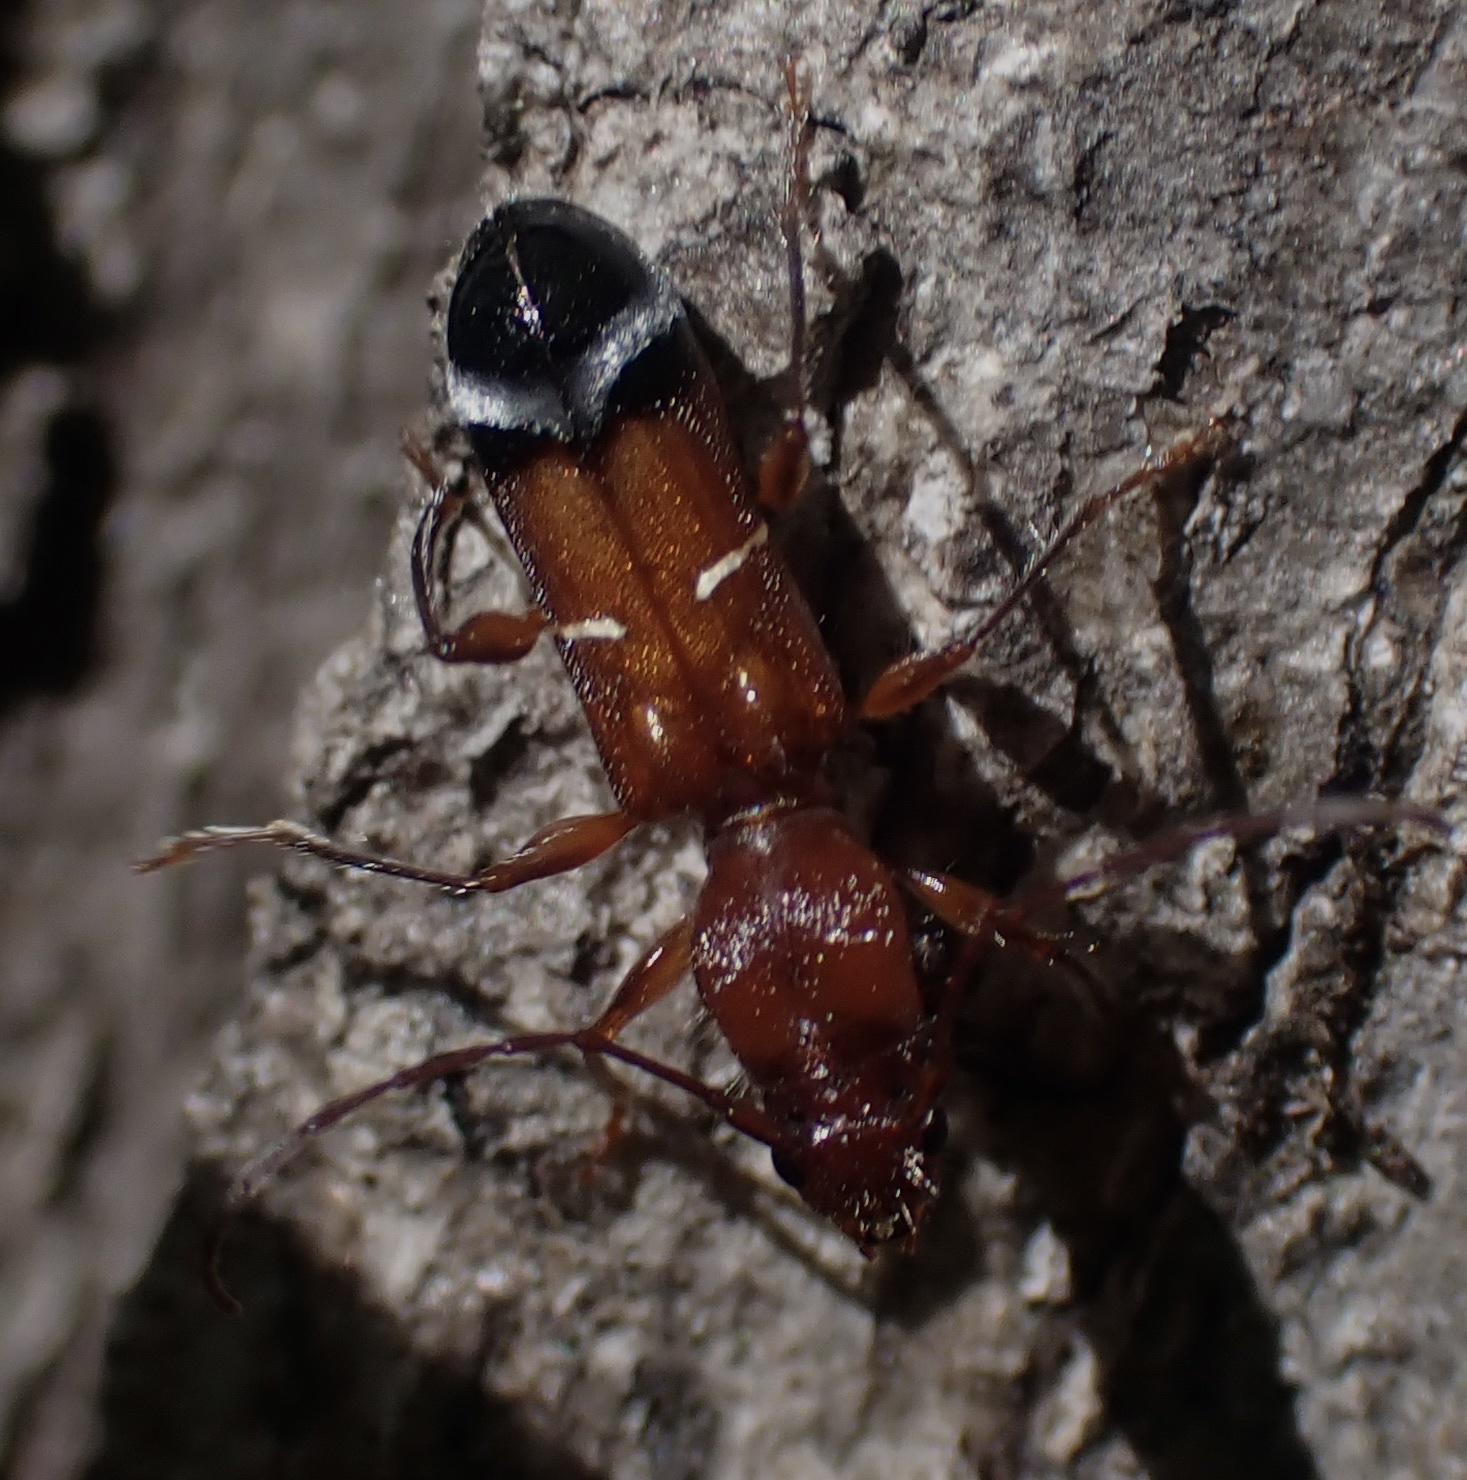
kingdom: Animalia
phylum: Arthropoda
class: Insecta
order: Coleoptera
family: Cerambycidae
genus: Euderces
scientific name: Euderces pini
